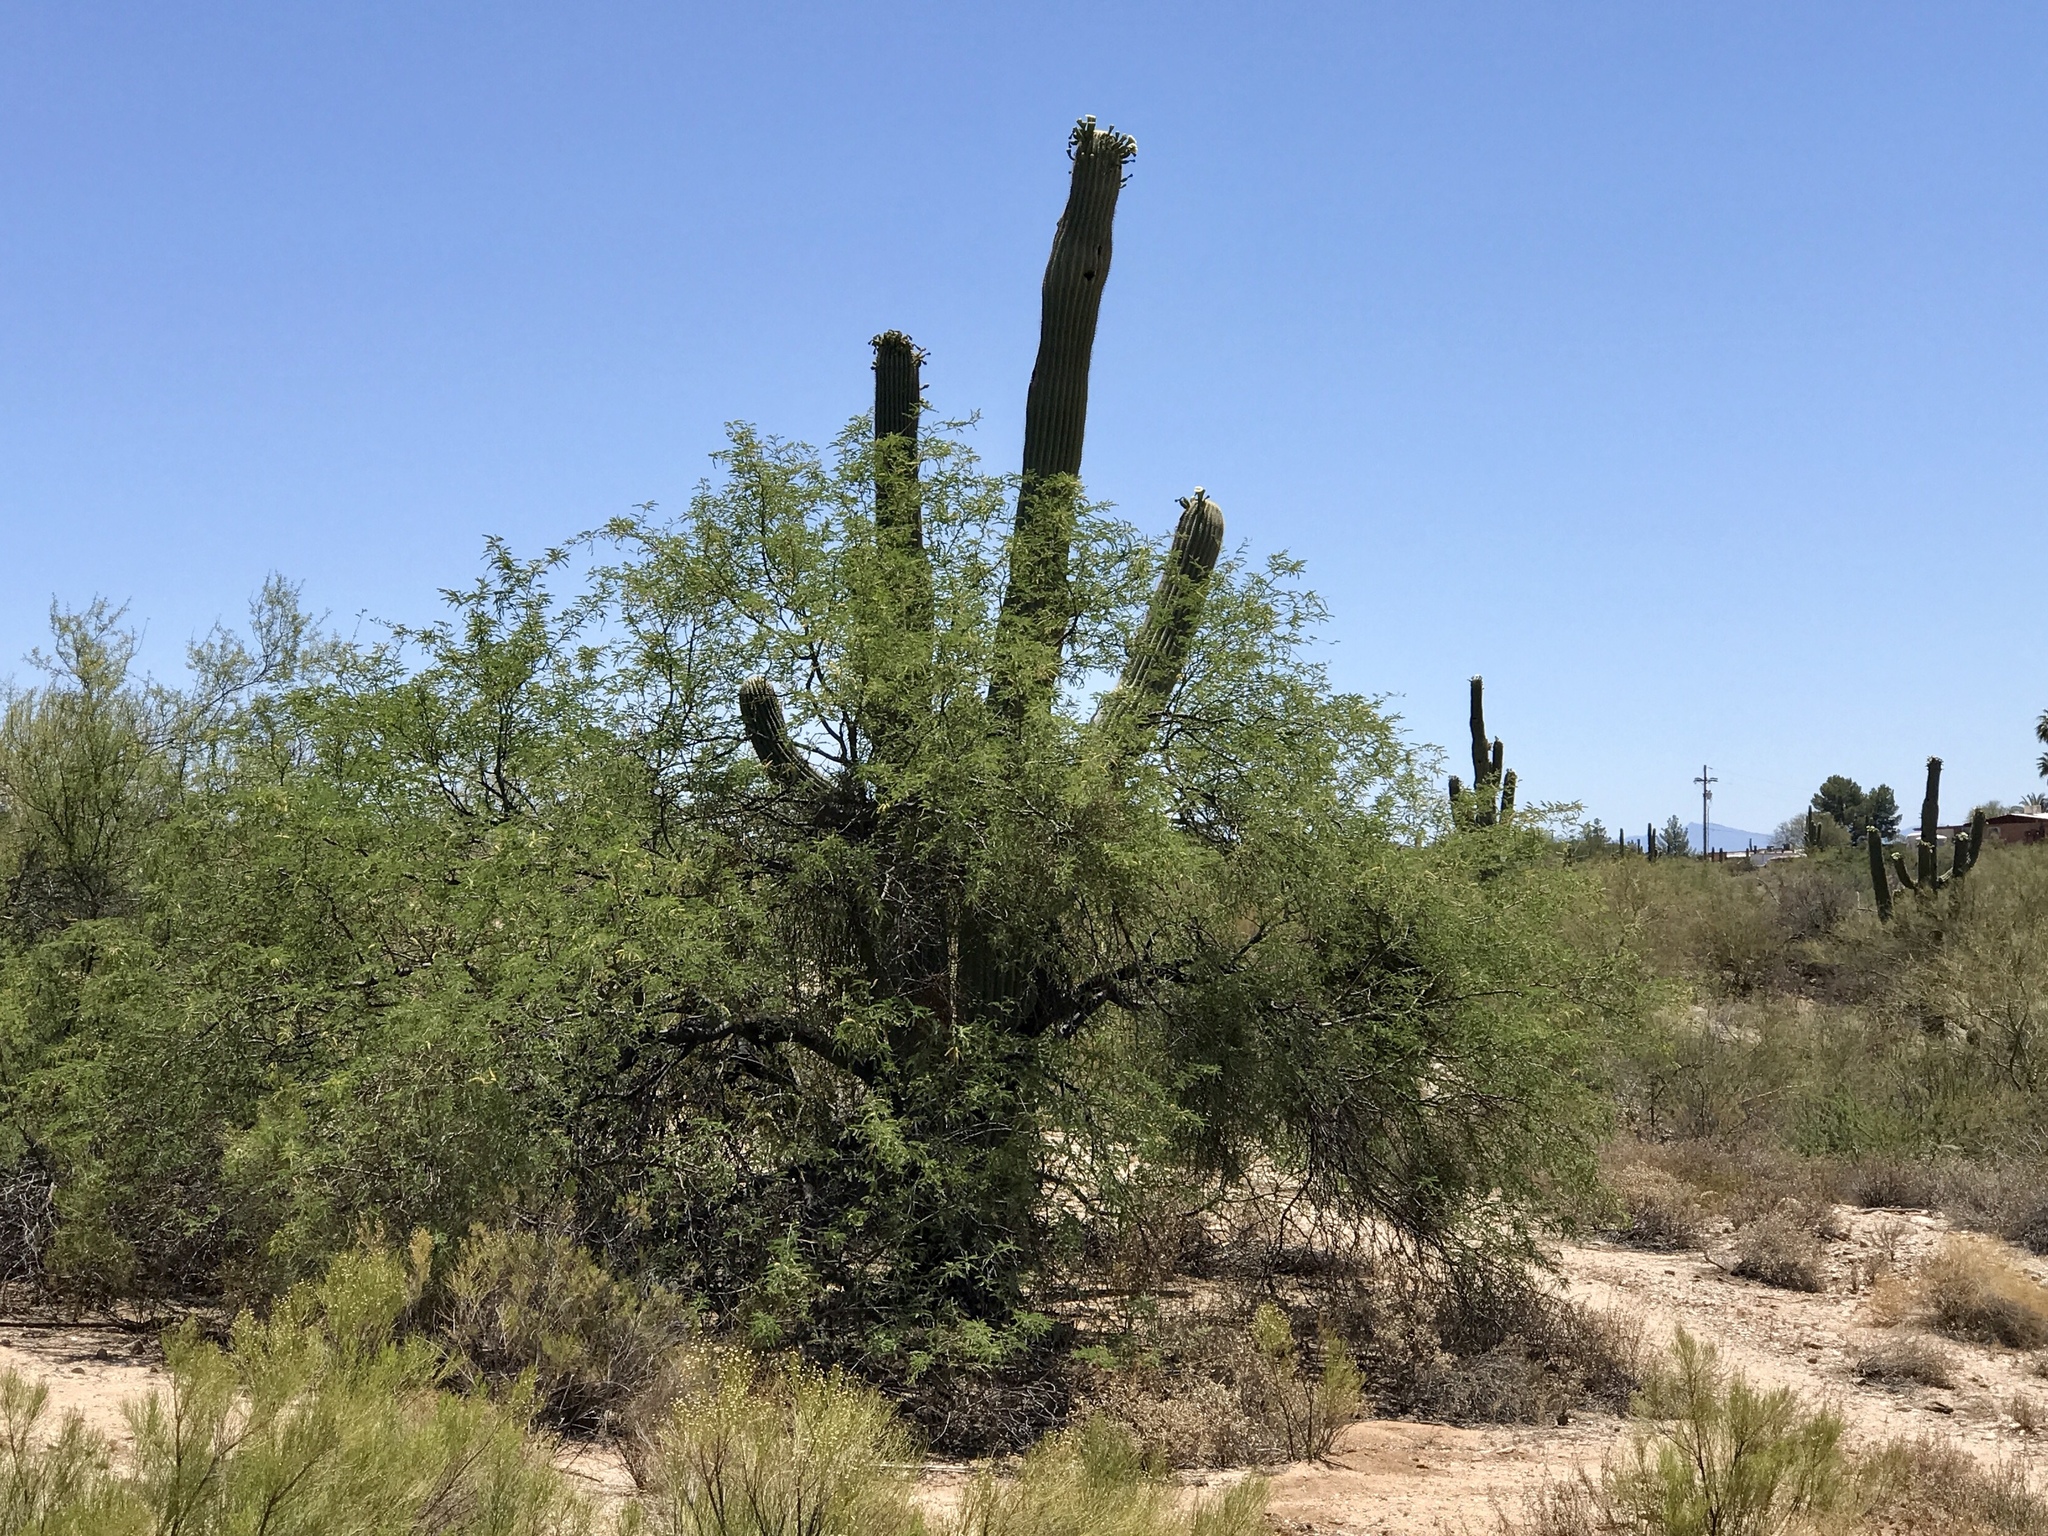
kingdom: Plantae
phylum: Tracheophyta
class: Magnoliopsida
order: Caryophyllales
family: Cactaceae
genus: Carnegiea
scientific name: Carnegiea gigantea
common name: Saguaro
